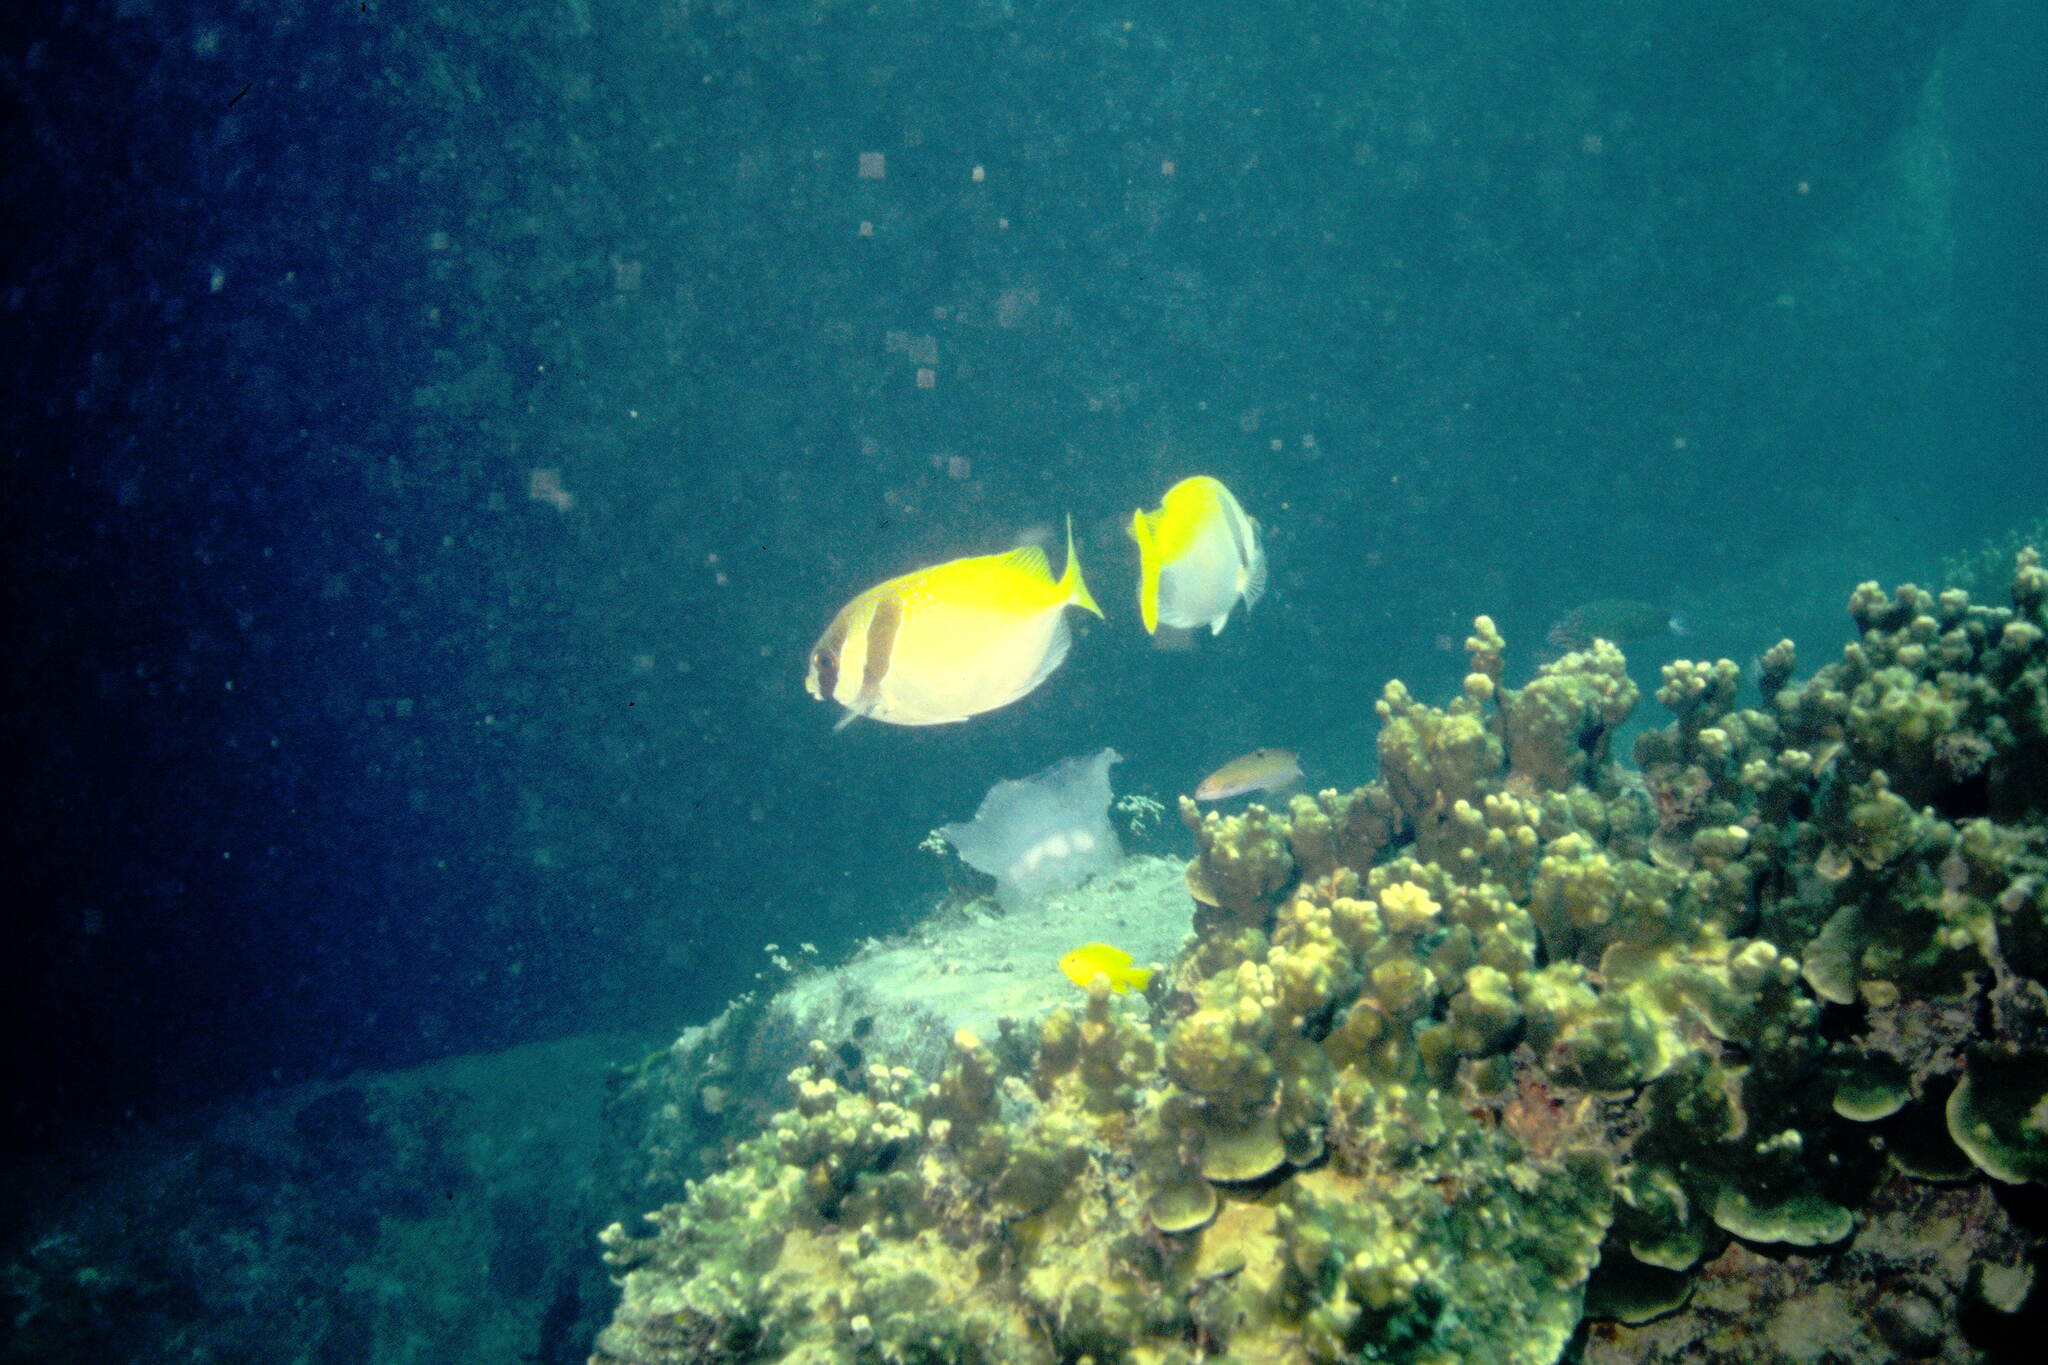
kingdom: Animalia
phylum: Chordata
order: Perciformes
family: Siganidae
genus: Siganus
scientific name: Siganus virgatus
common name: Barhead spinefoot
